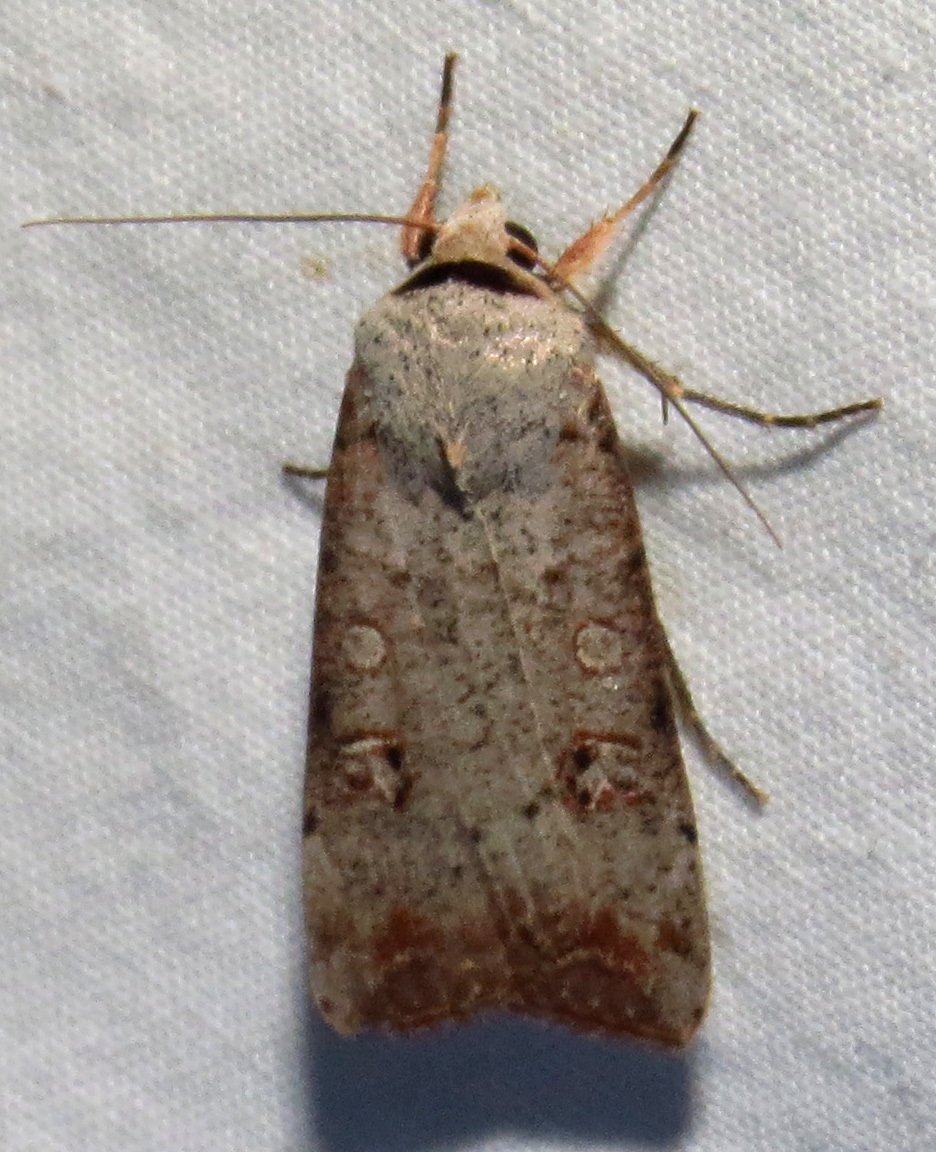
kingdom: Animalia
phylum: Arthropoda
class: Insecta
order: Lepidoptera
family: Noctuidae
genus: Anicla
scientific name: Anicla infecta
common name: Green cutworm
